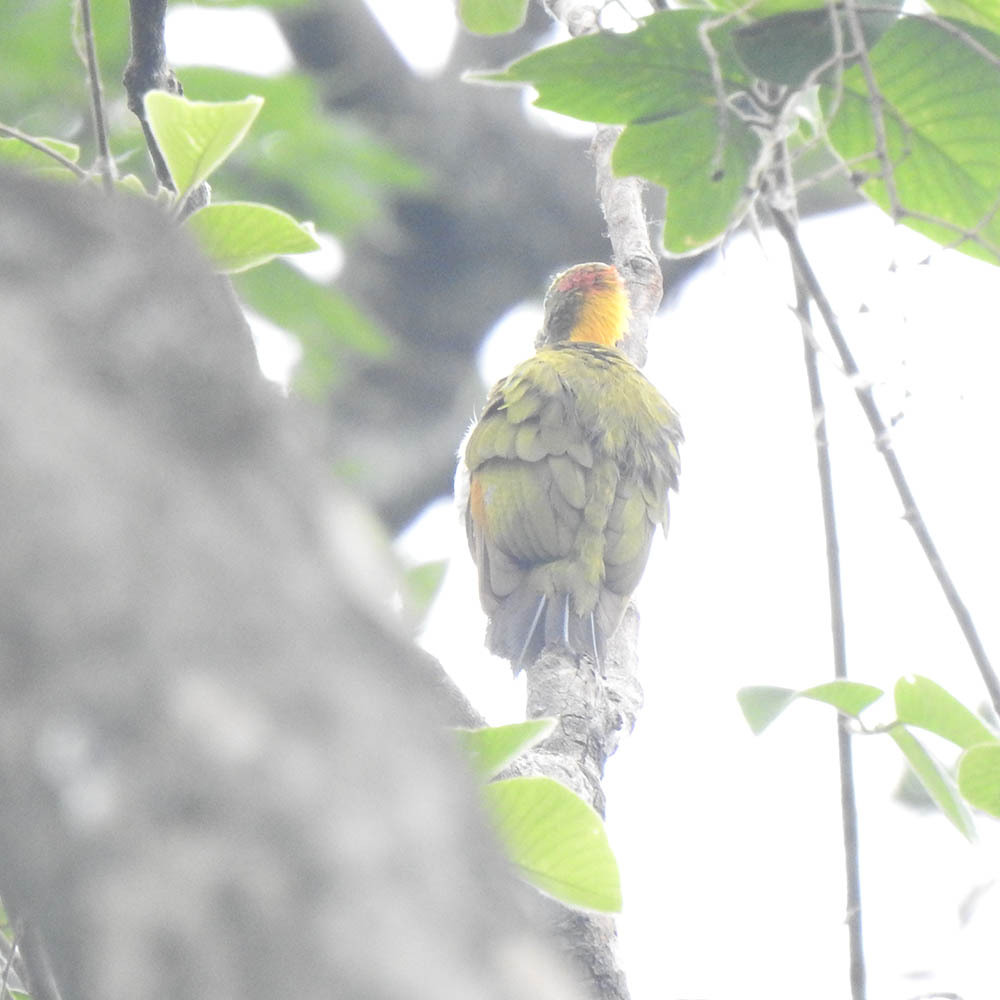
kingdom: Animalia
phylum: Chordata
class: Aves
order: Piciformes
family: Picidae
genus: Picus
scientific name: Picus chlorolophus
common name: Lesser yellownape
